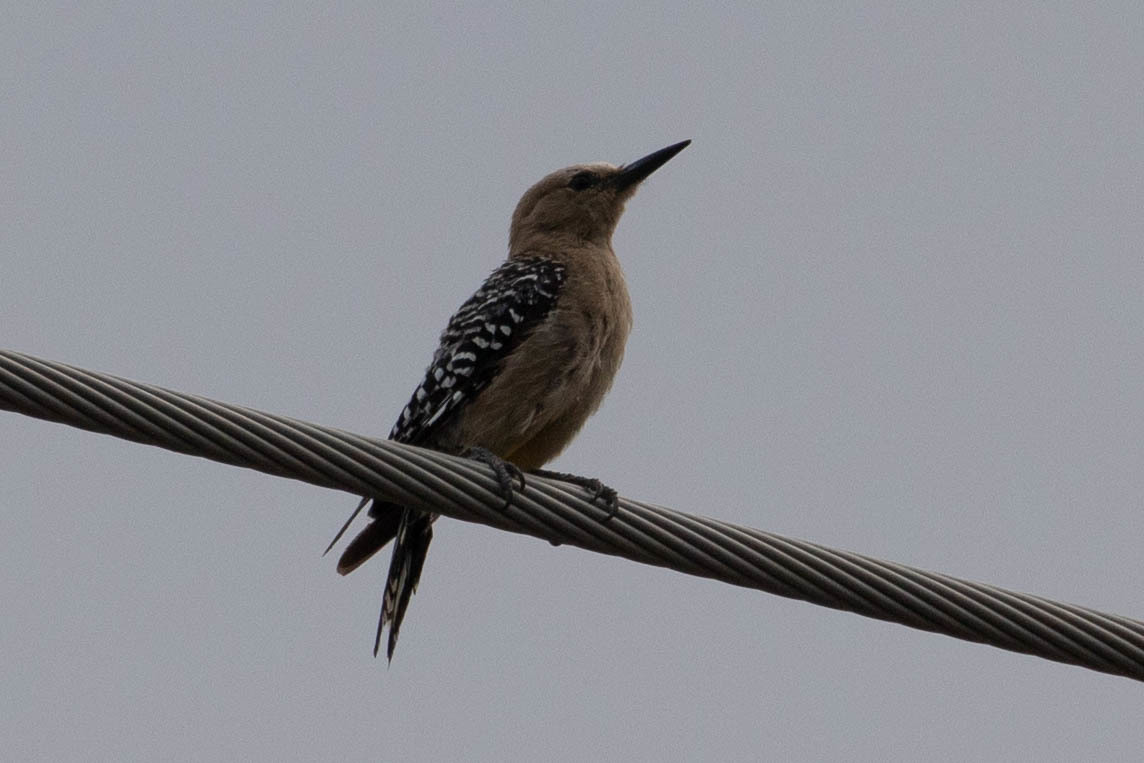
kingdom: Animalia
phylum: Chordata
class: Aves
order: Piciformes
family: Picidae
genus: Melanerpes
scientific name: Melanerpes uropygialis
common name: Gila woodpecker
